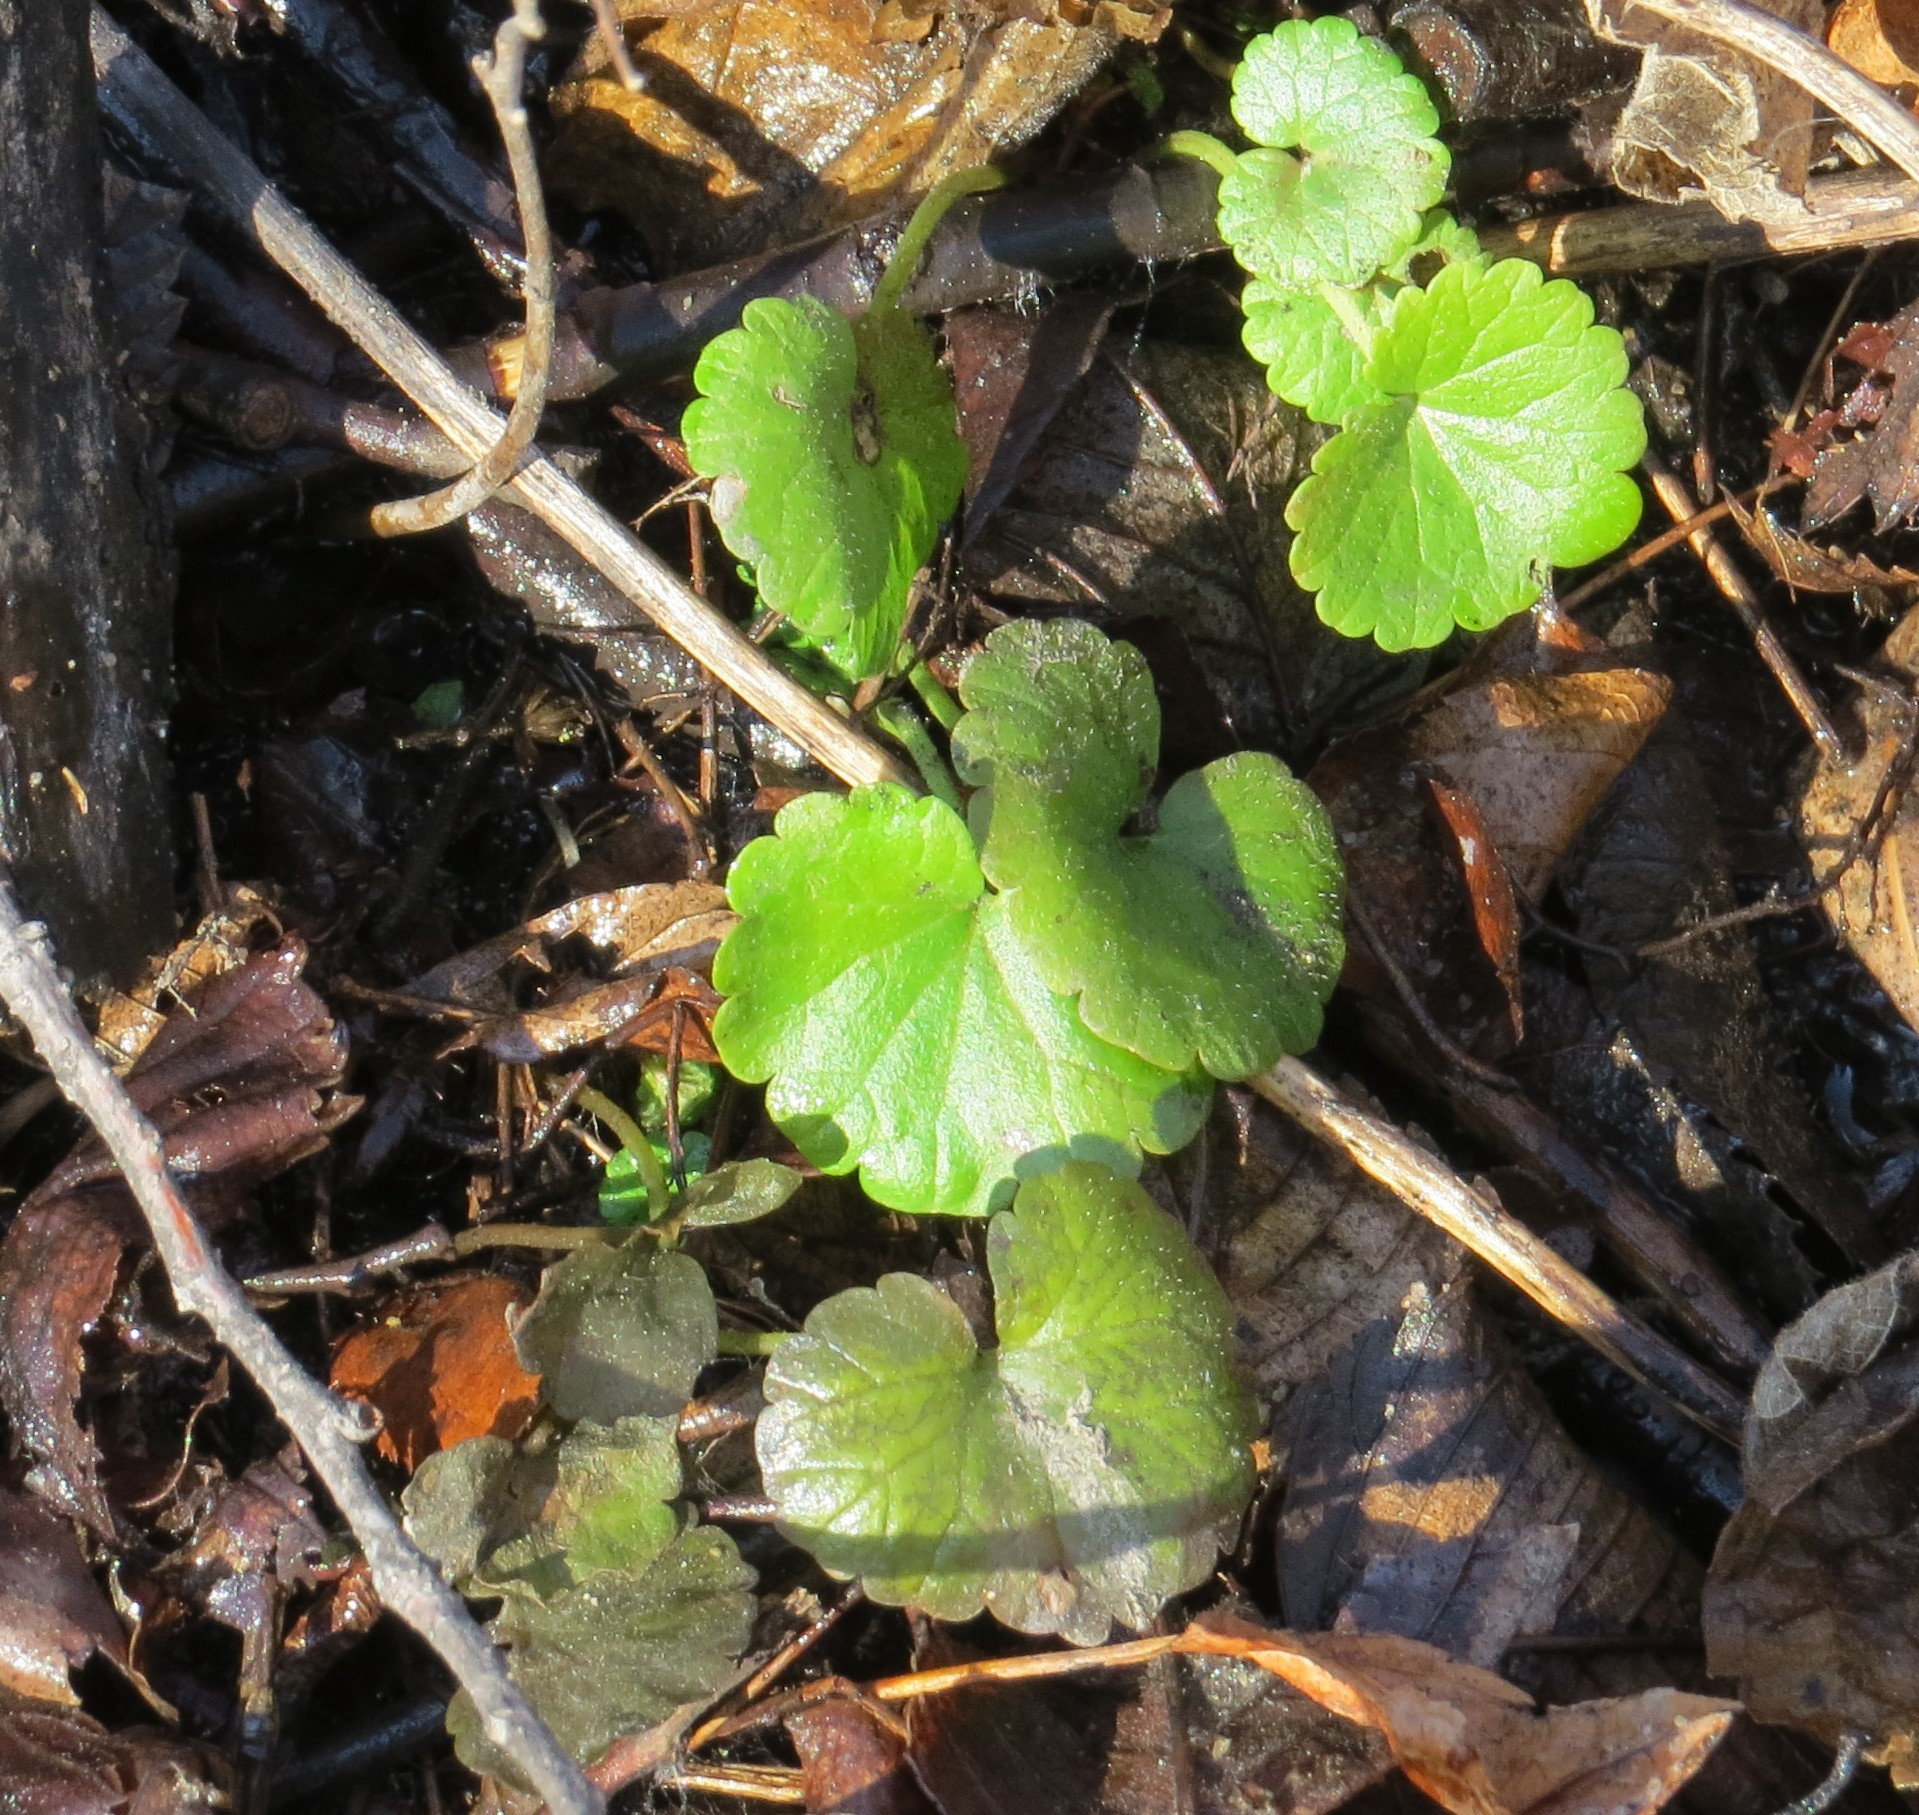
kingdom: Plantae
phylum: Tracheophyta
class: Magnoliopsida
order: Lamiales
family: Lamiaceae
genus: Glechoma
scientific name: Glechoma hederacea
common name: Ground ivy
